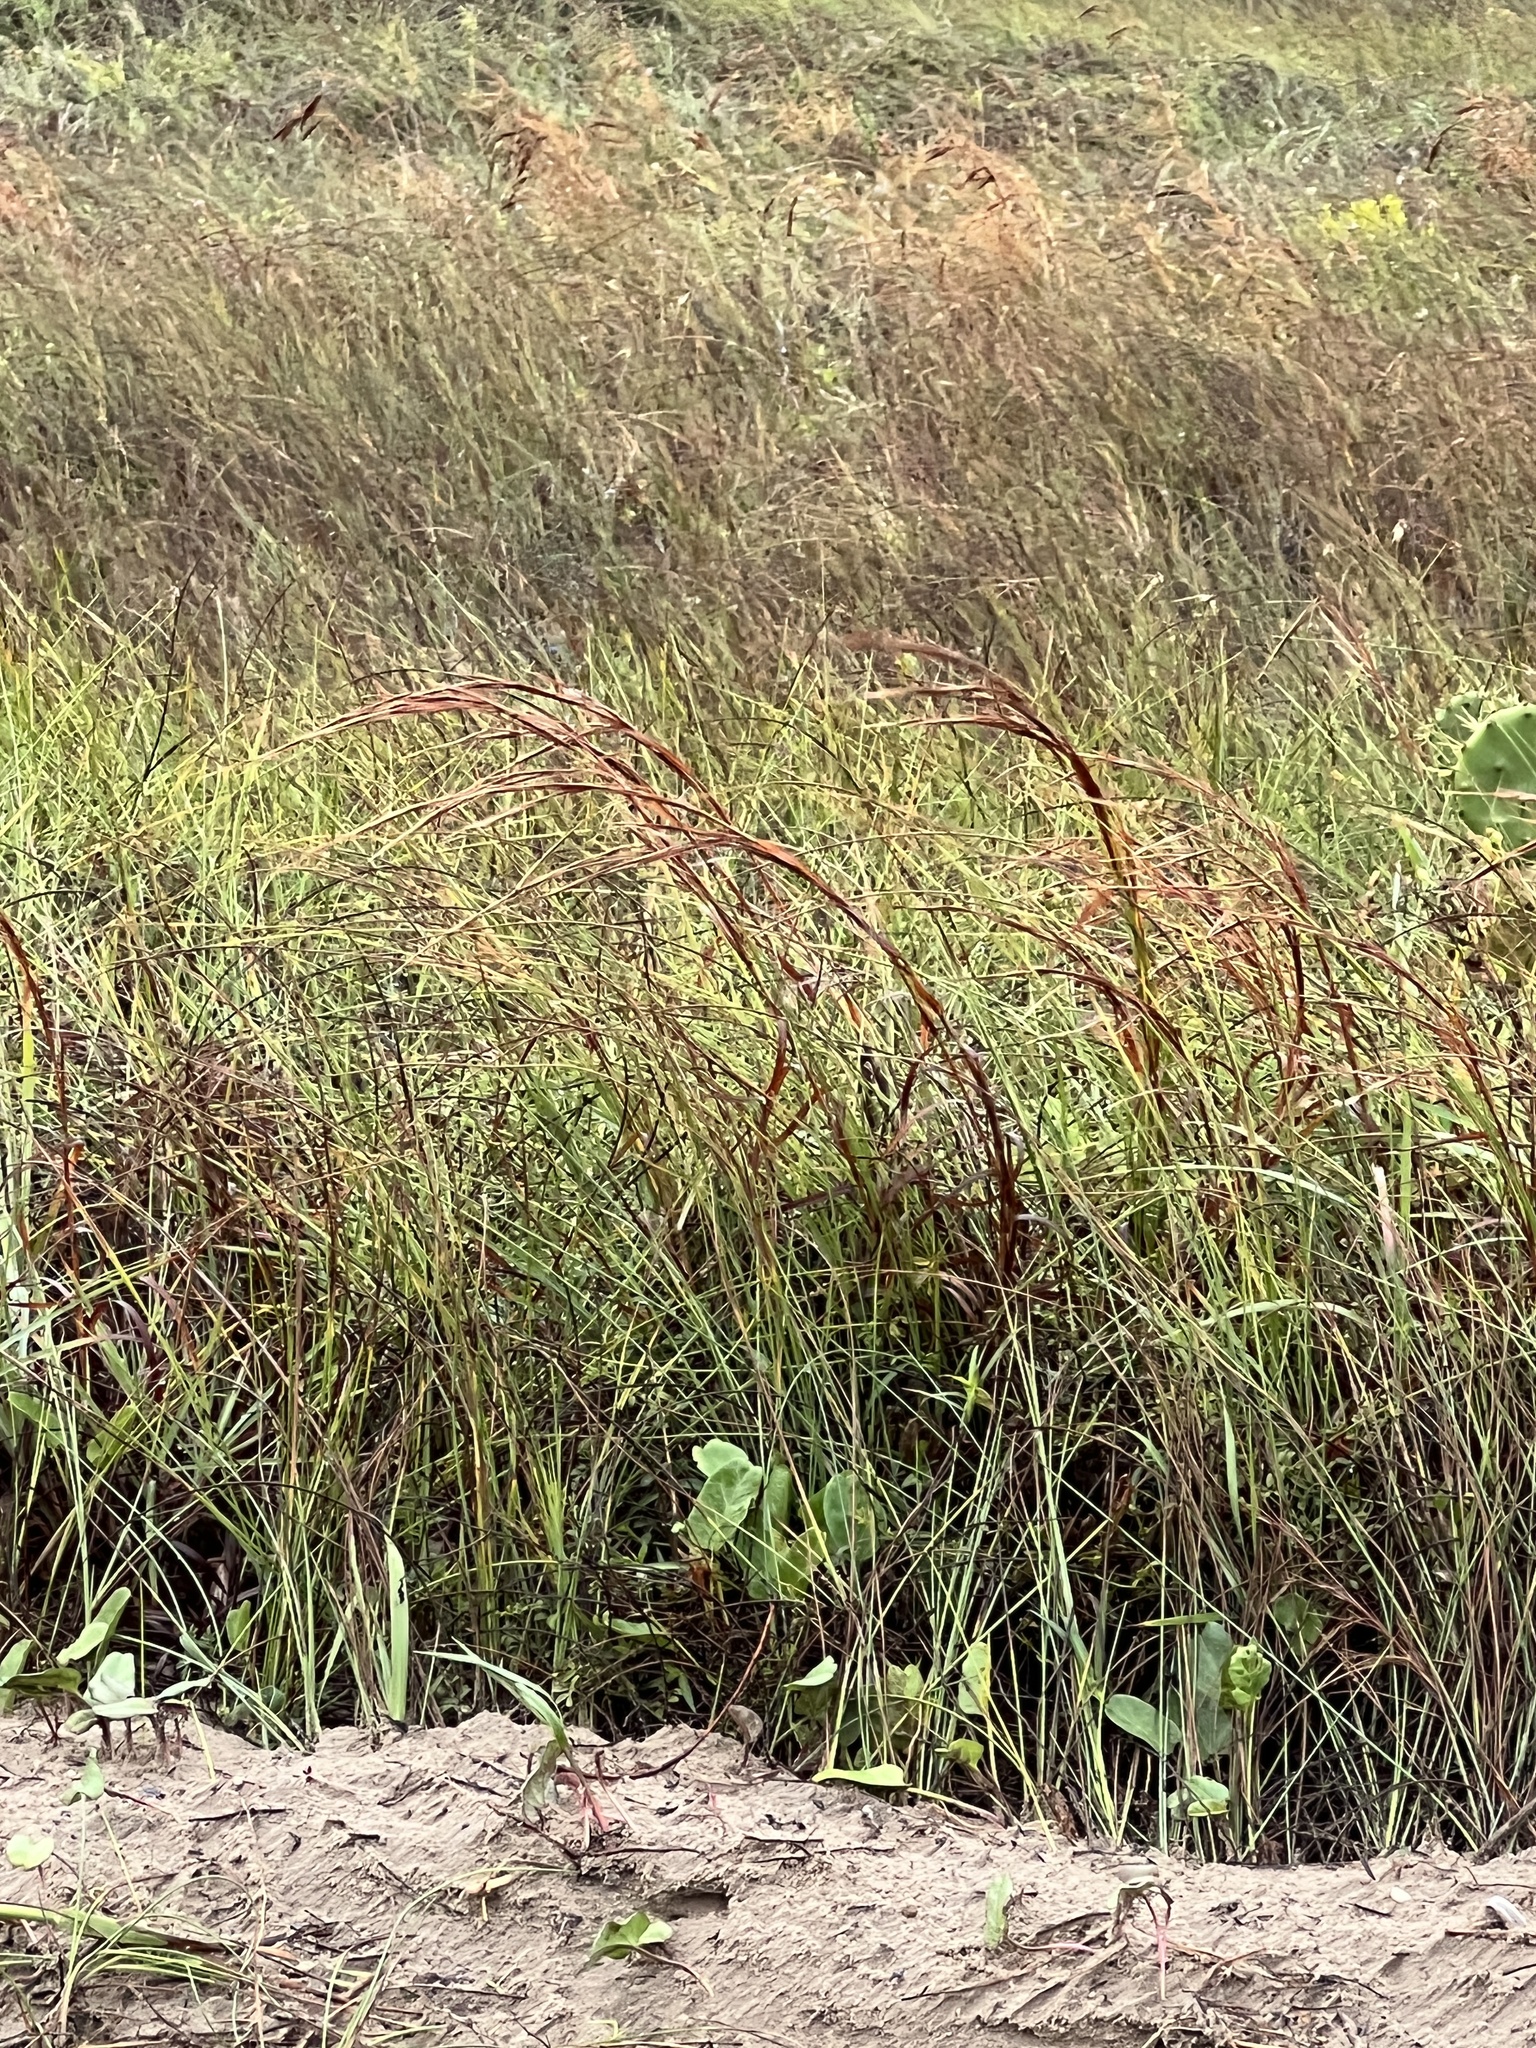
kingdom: Plantae
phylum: Tracheophyta
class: Liliopsida
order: Poales
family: Poaceae
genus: Schizachyrium
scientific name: Schizachyrium scoparium
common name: Little bluestem
